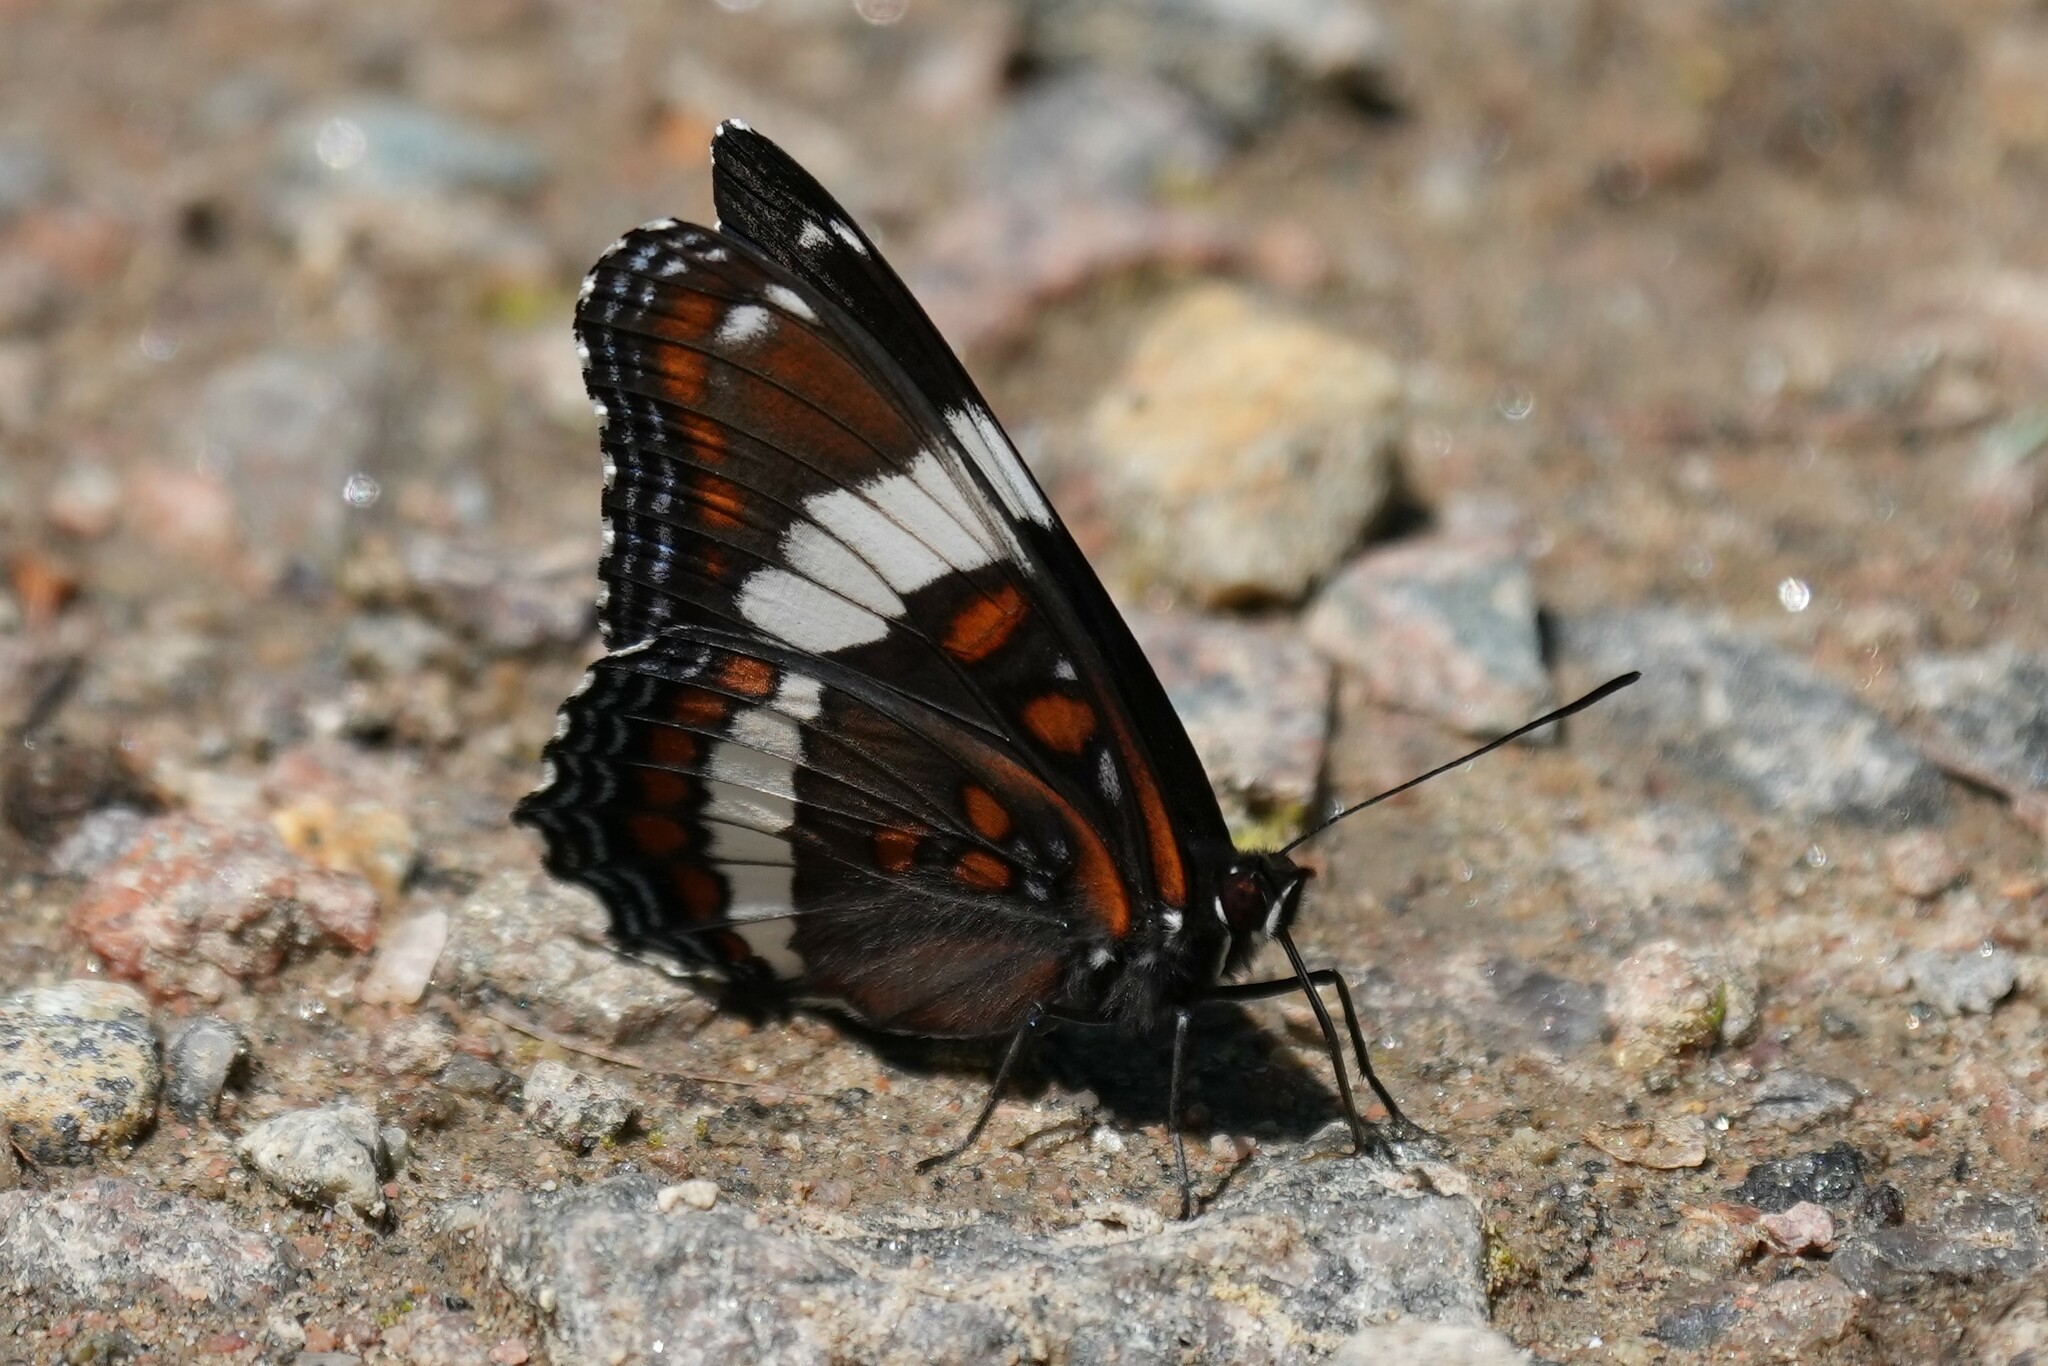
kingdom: Animalia
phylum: Arthropoda
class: Insecta
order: Lepidoptera
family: Nymphalidae
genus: Limenitis
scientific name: Limenitis arthemis
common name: Red-spotted admiral
